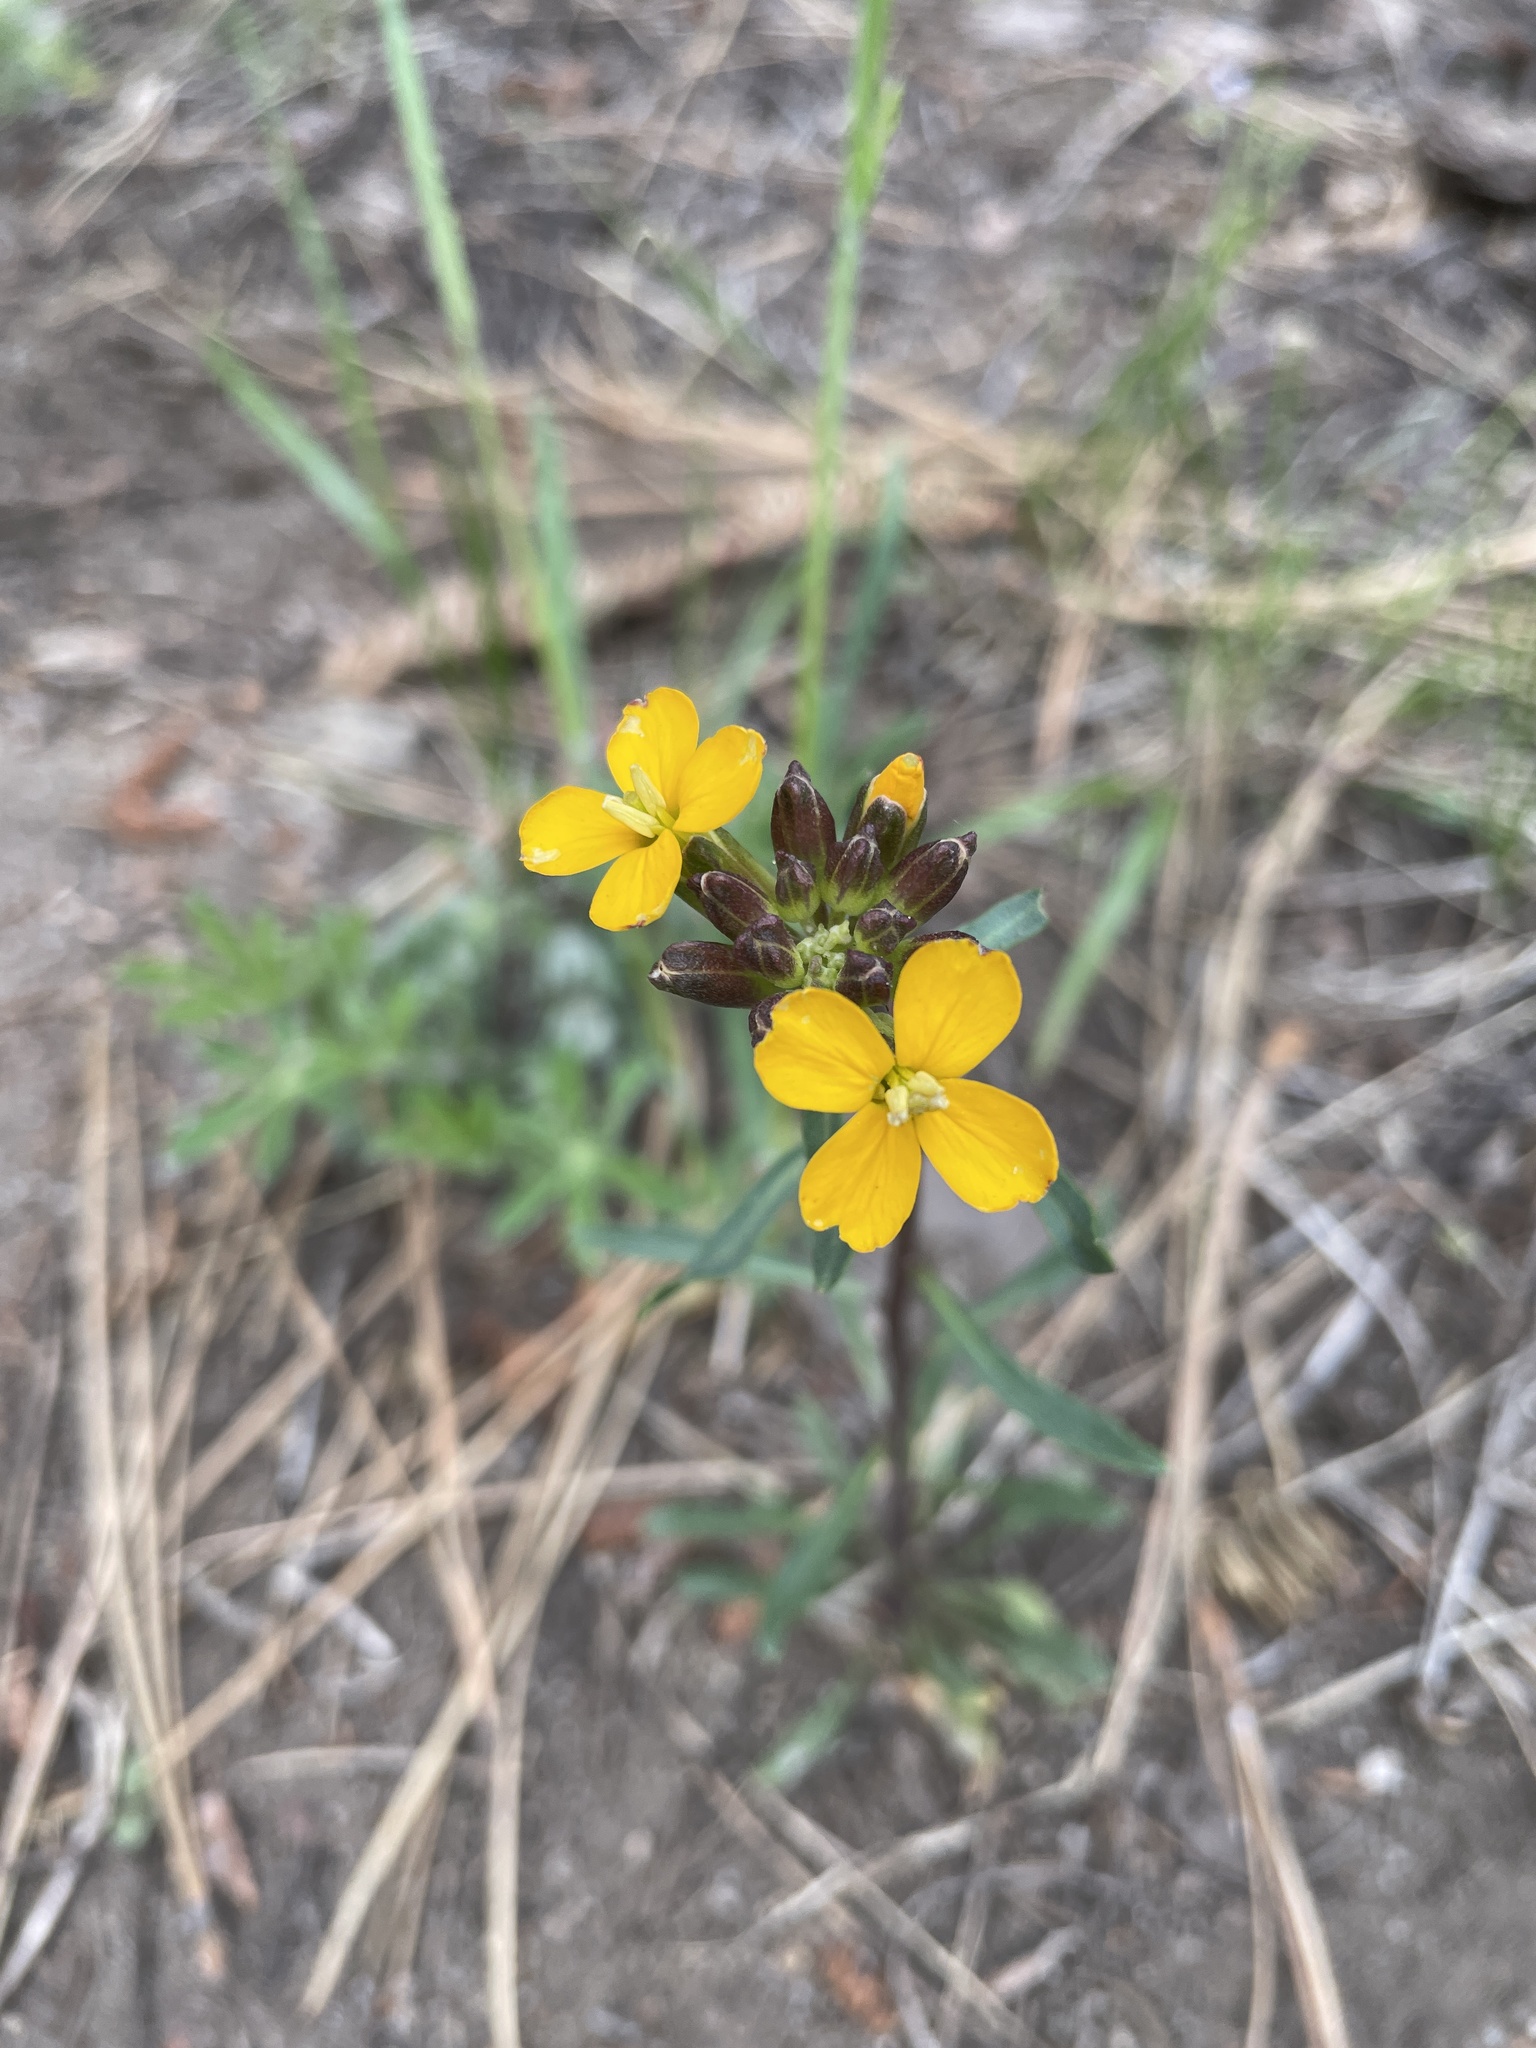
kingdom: Plantae
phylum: Tracheophyta
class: Magnoliopsida
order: Brassicales
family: Brassicaceae
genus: Erysimum
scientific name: Erysimum capitatum
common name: Western wallflower
